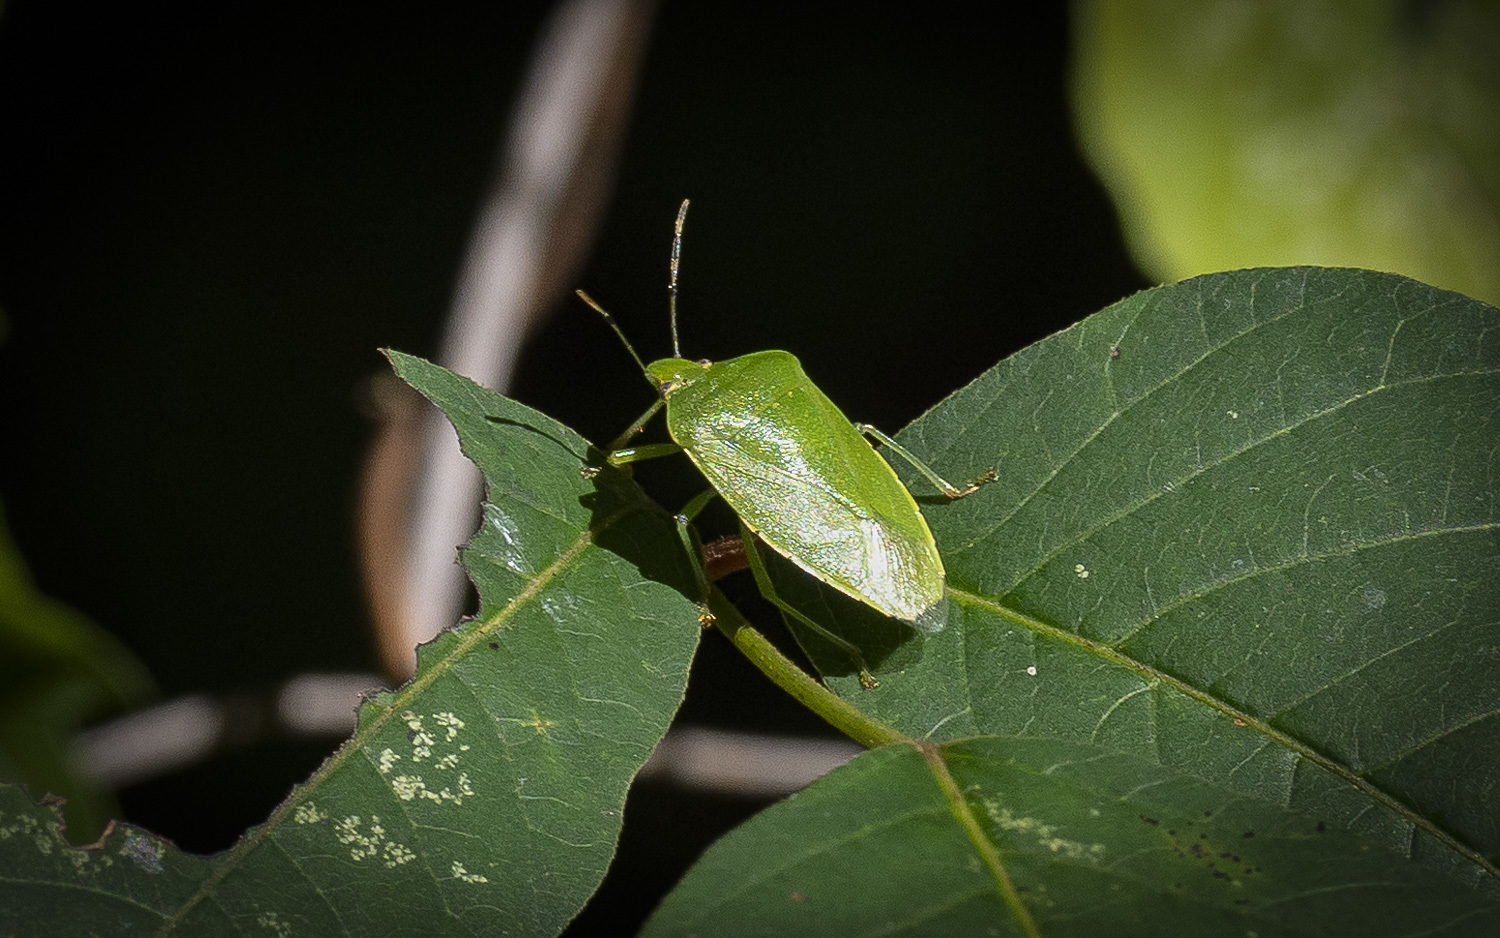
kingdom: Animalia
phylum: Arthropoda
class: Insecta
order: Hemiptera
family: Pentatomidae
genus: Chinavia
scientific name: Chinavia hilaris
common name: Green stink bug
